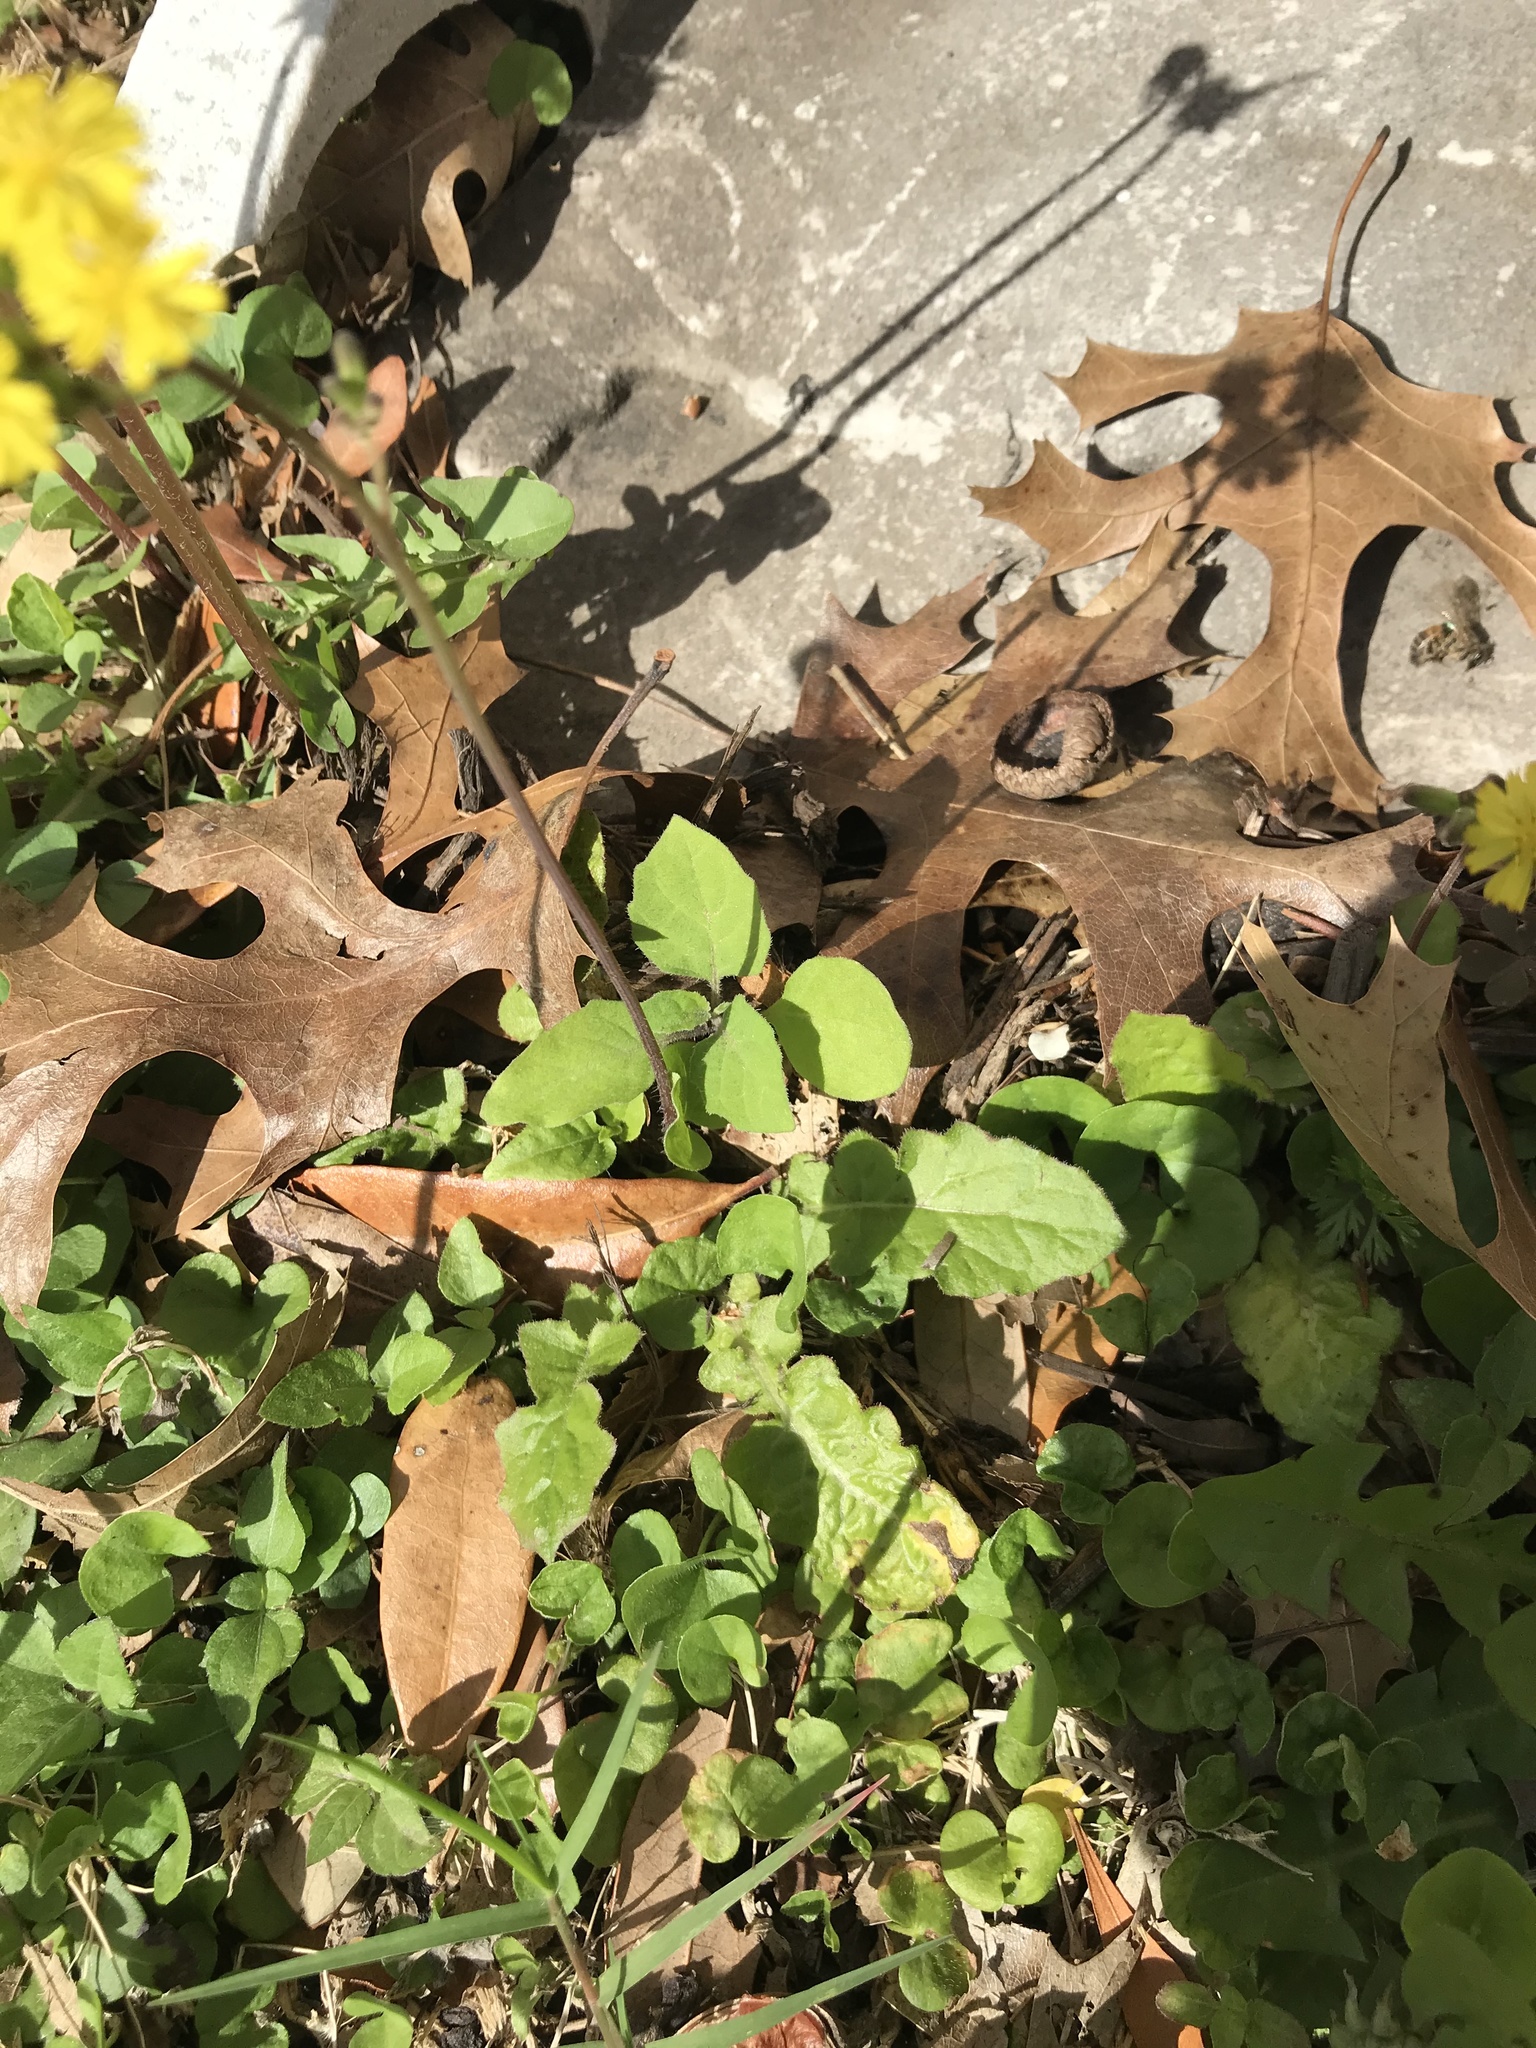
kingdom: Plantae
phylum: Tracheophyta
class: Magnoliopsida
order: Asterales
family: Asteraceae
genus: Youngia
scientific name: Youngia japonica
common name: Oriental false hawksbeard
